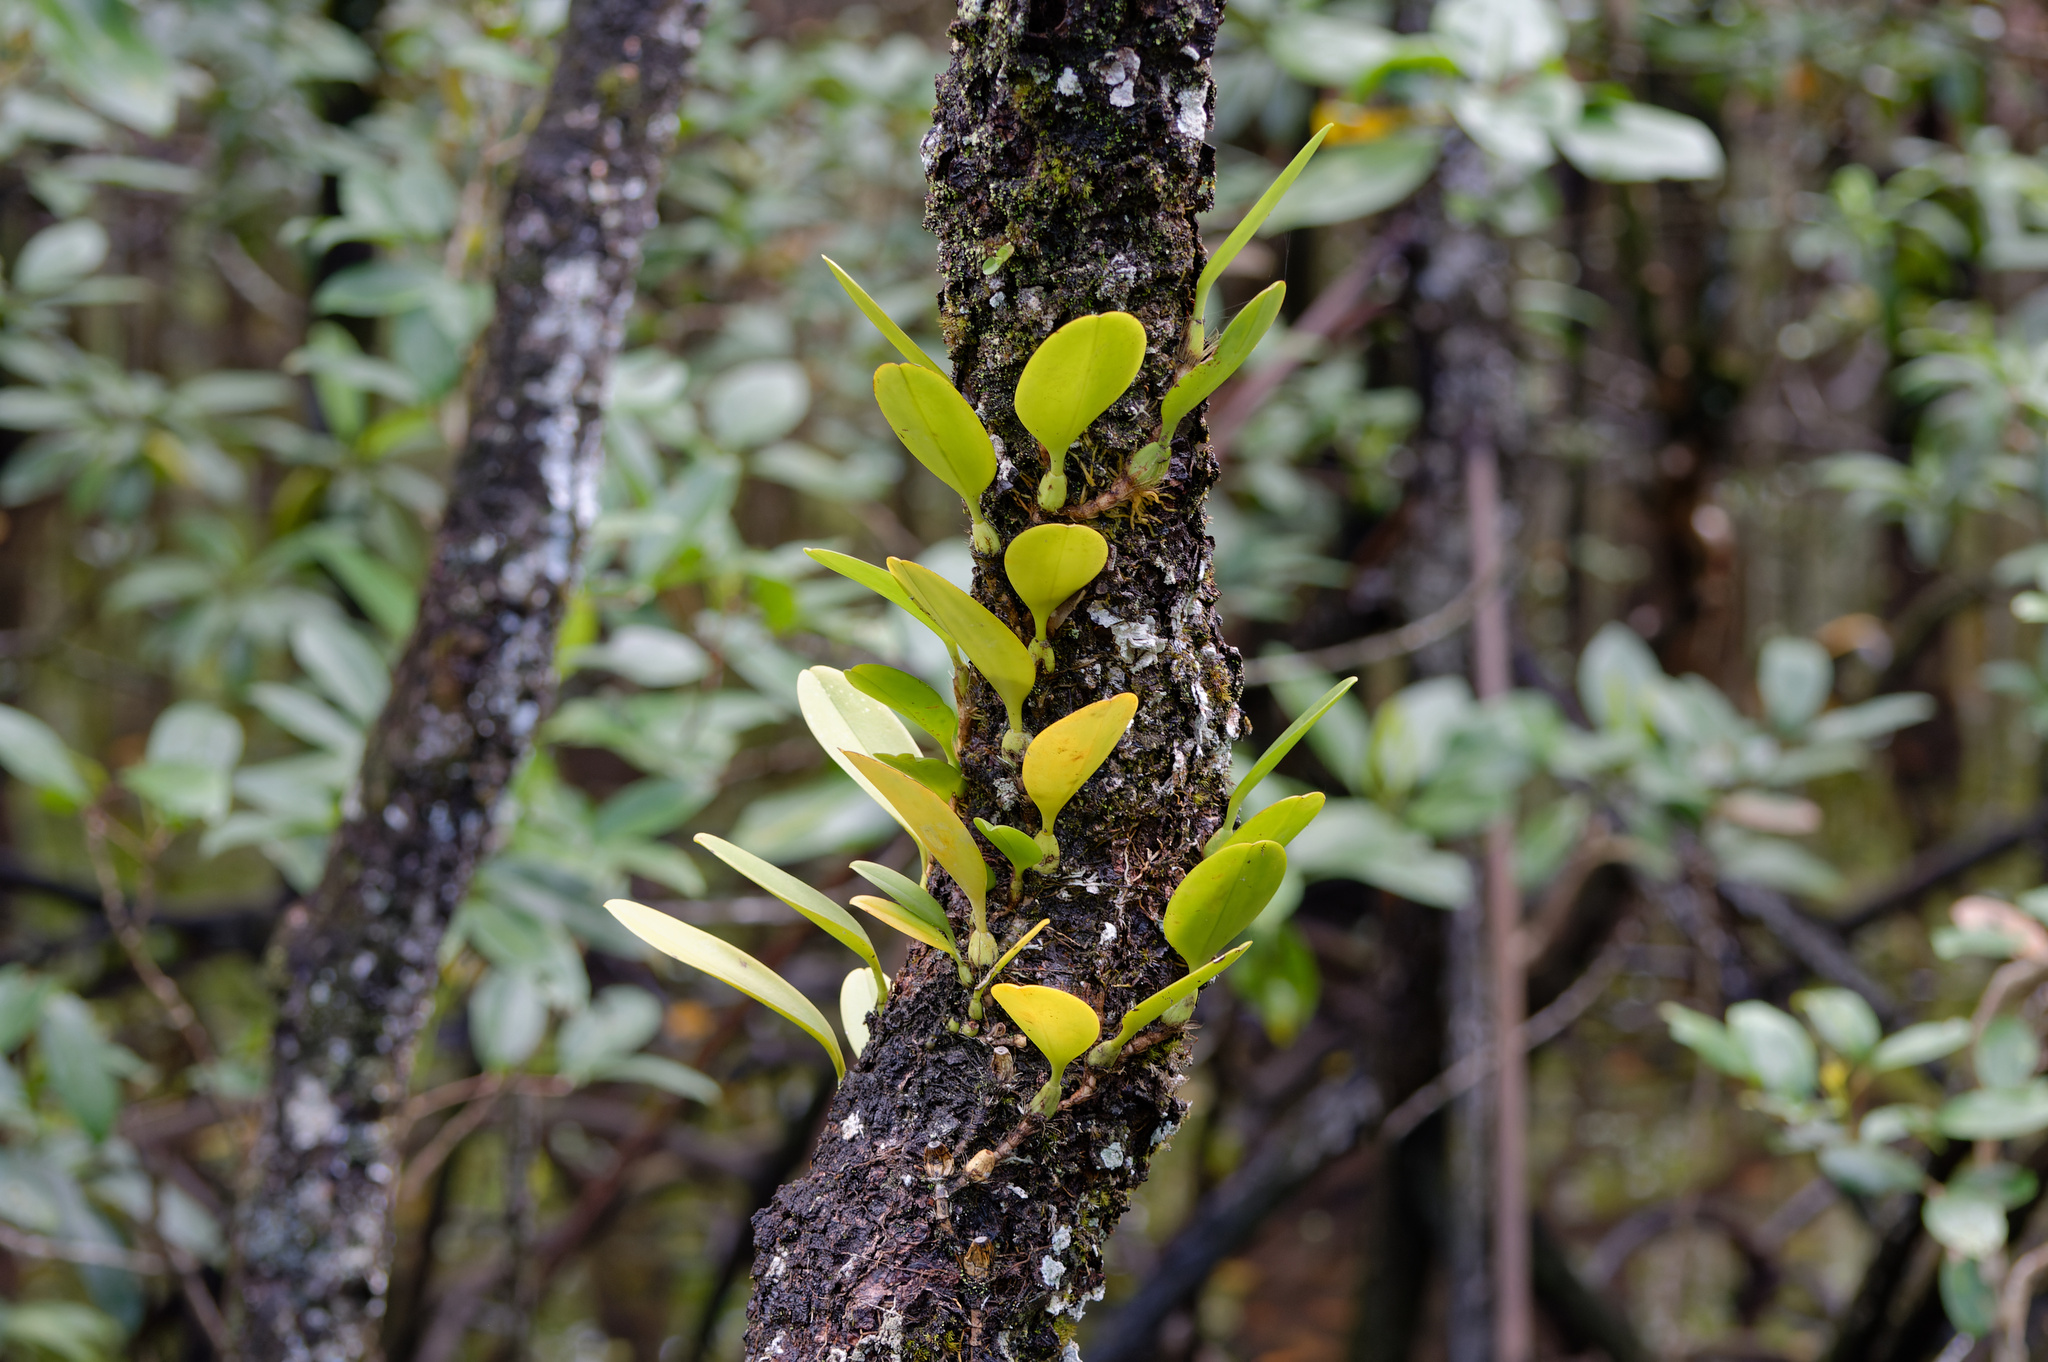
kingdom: Plantae
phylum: Tracheophyta
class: Liliopsida
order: Asparagales
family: Orchidaceae
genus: Bulbophyllum
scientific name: Bulbophyllum baileyi
